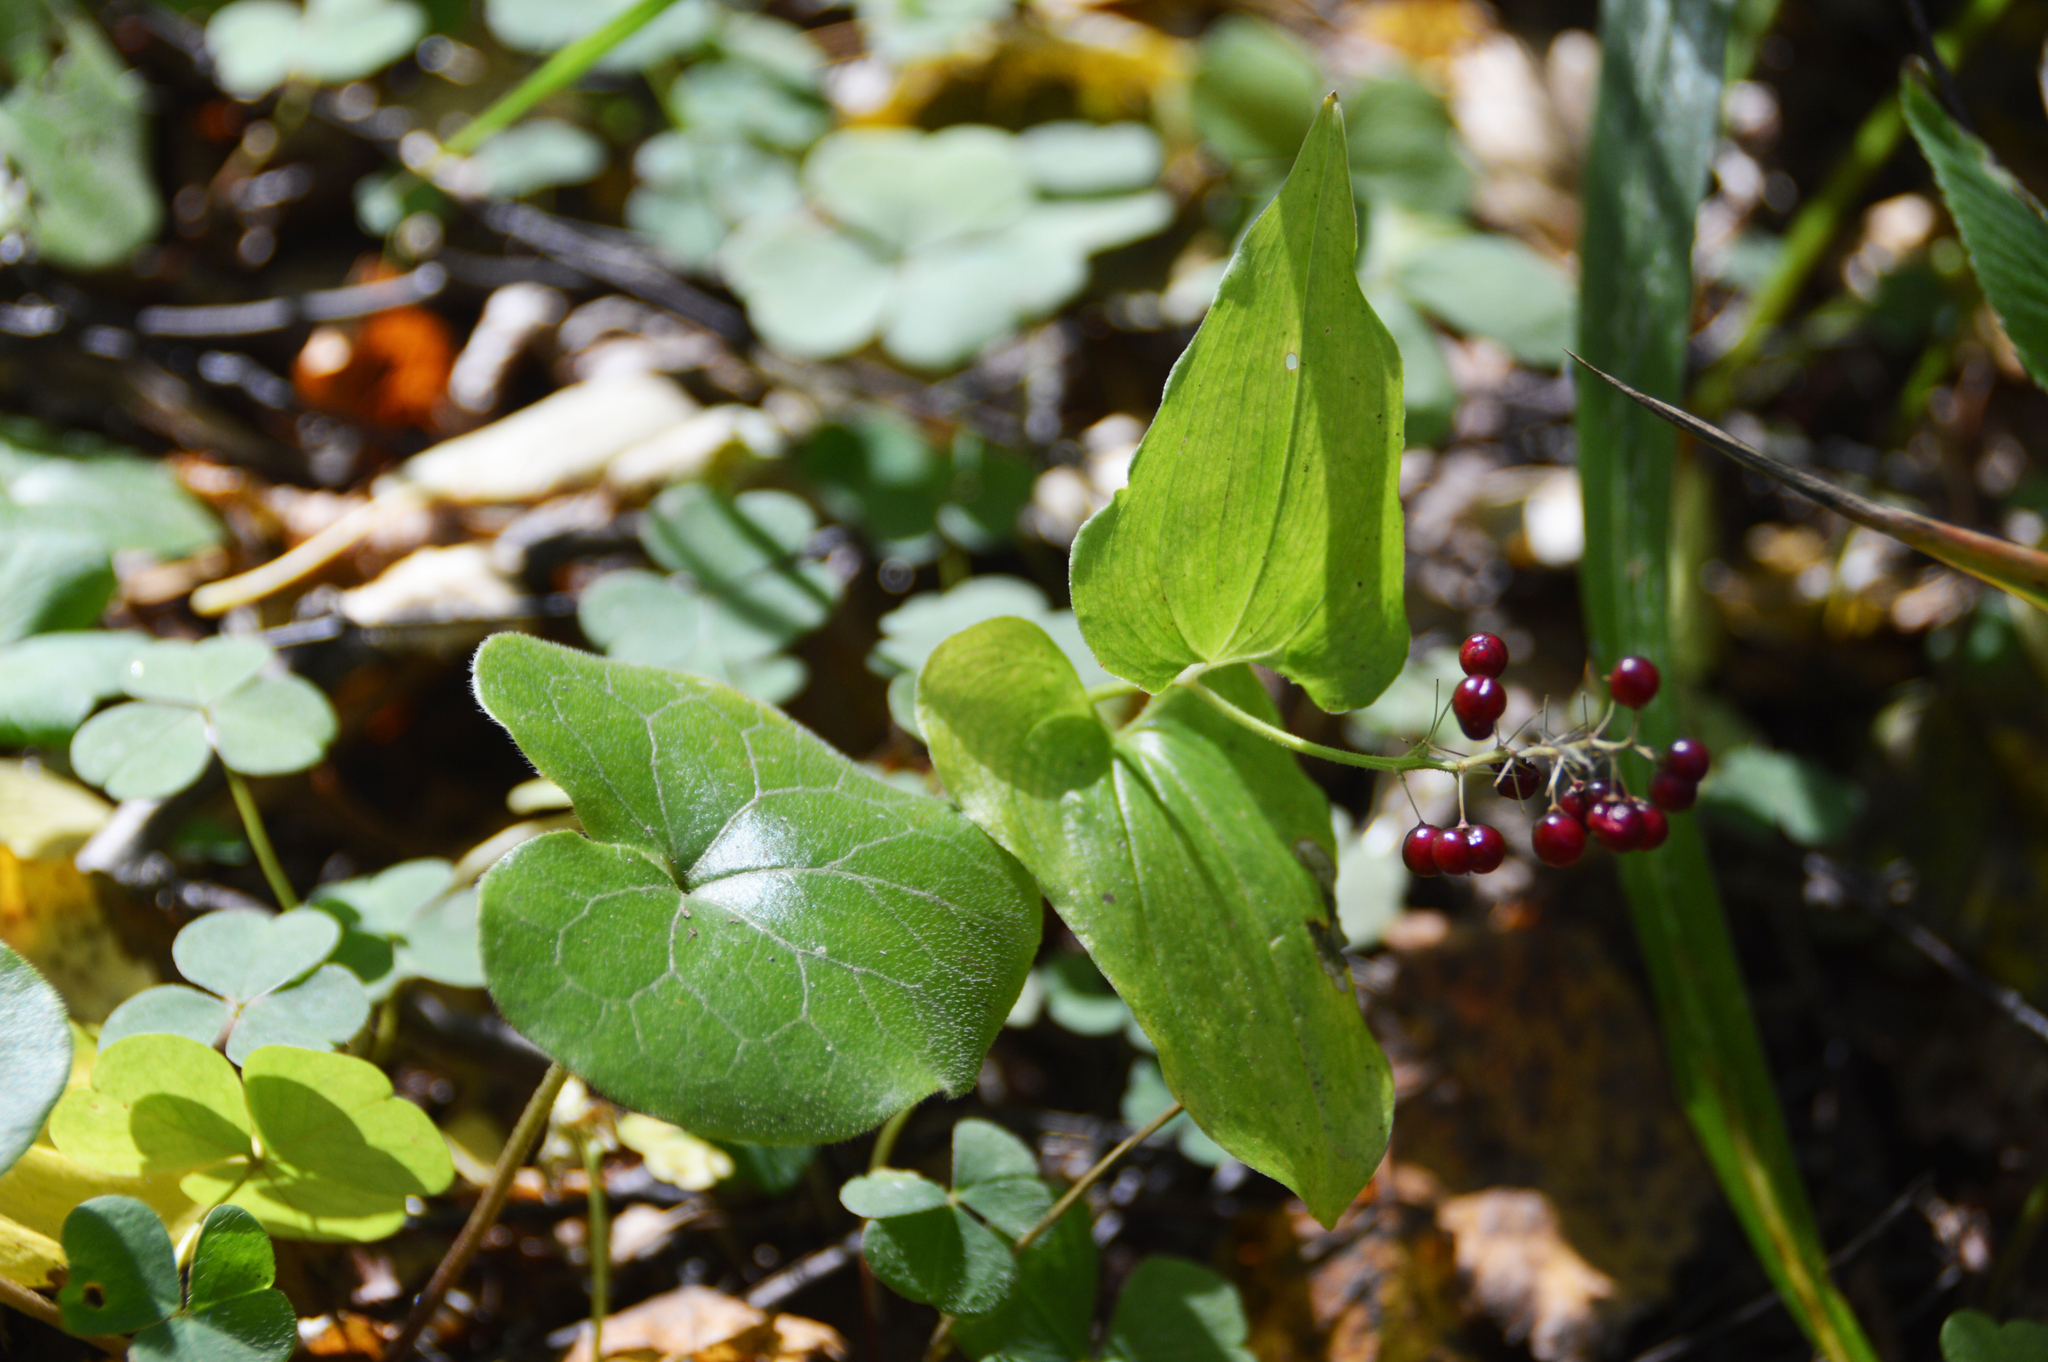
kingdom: Plantae
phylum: Tracheophyta
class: Liliopsida
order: Asparagales
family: Asparagaceae
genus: Maianthemum
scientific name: Maianthemum bifolium
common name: May lily
